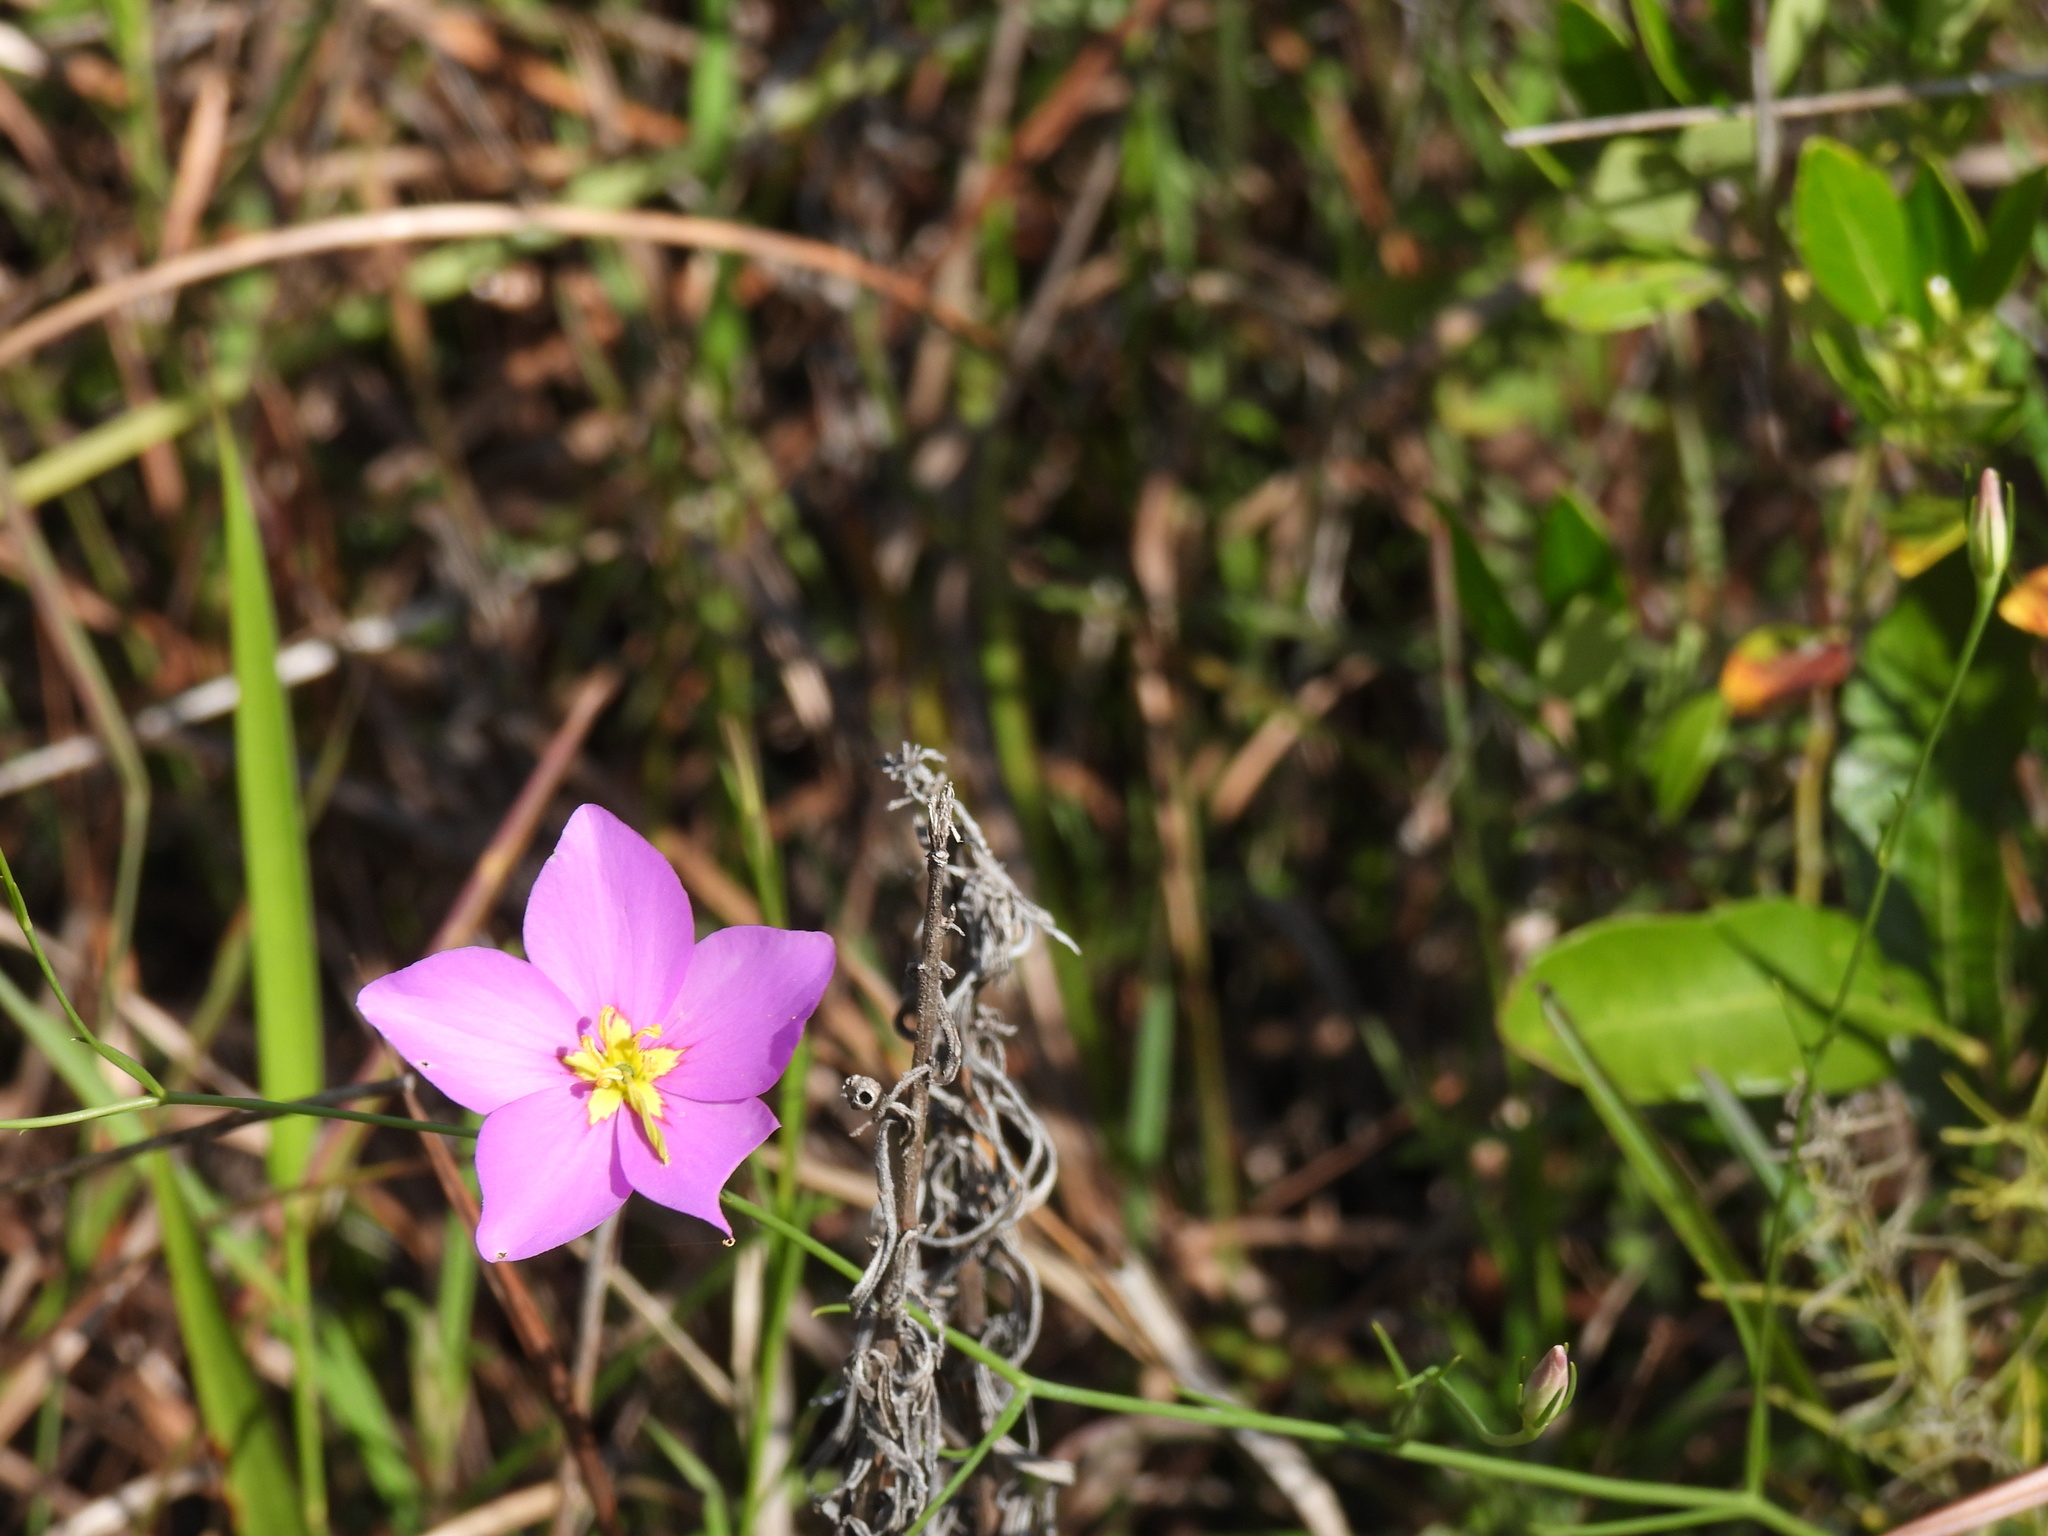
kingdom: Plantae
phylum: Tracheophyta
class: Magnoliopsida
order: Gentianales
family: Gentianaceae
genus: Sabatia
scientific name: Sabatia grandiflora
